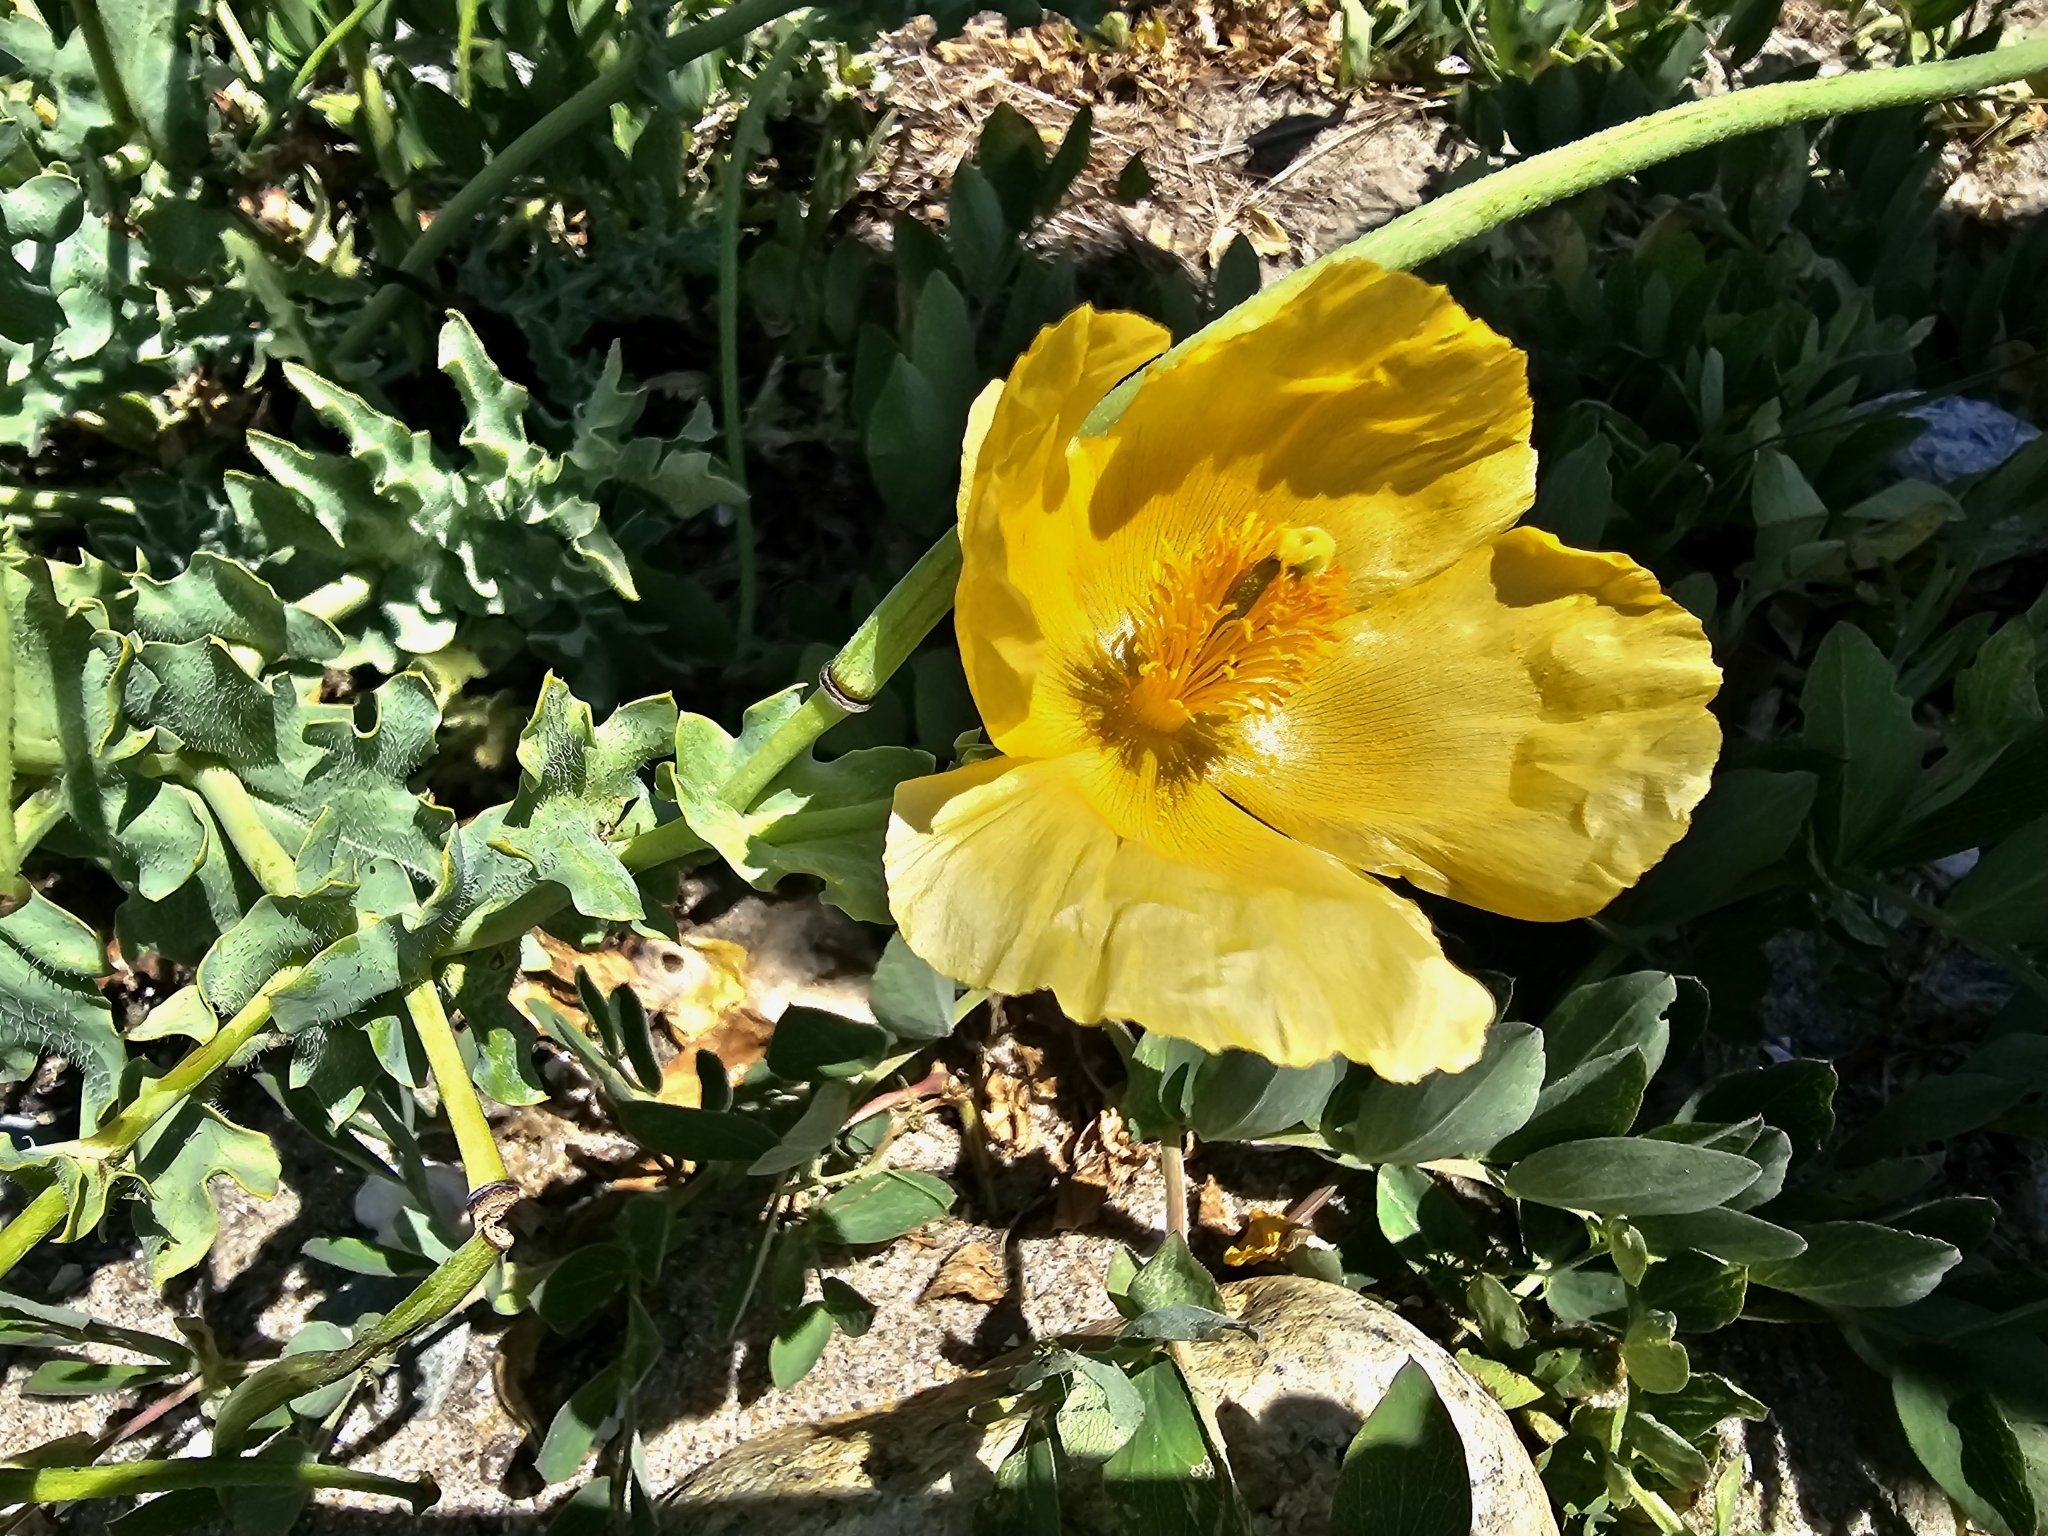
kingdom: Plantae
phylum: Tracheophyta
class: Magnoliopsida
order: Ranunculales
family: Papaveraceae
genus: Glaucium
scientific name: Glaucium flavum
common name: Yellow horned-poppy
